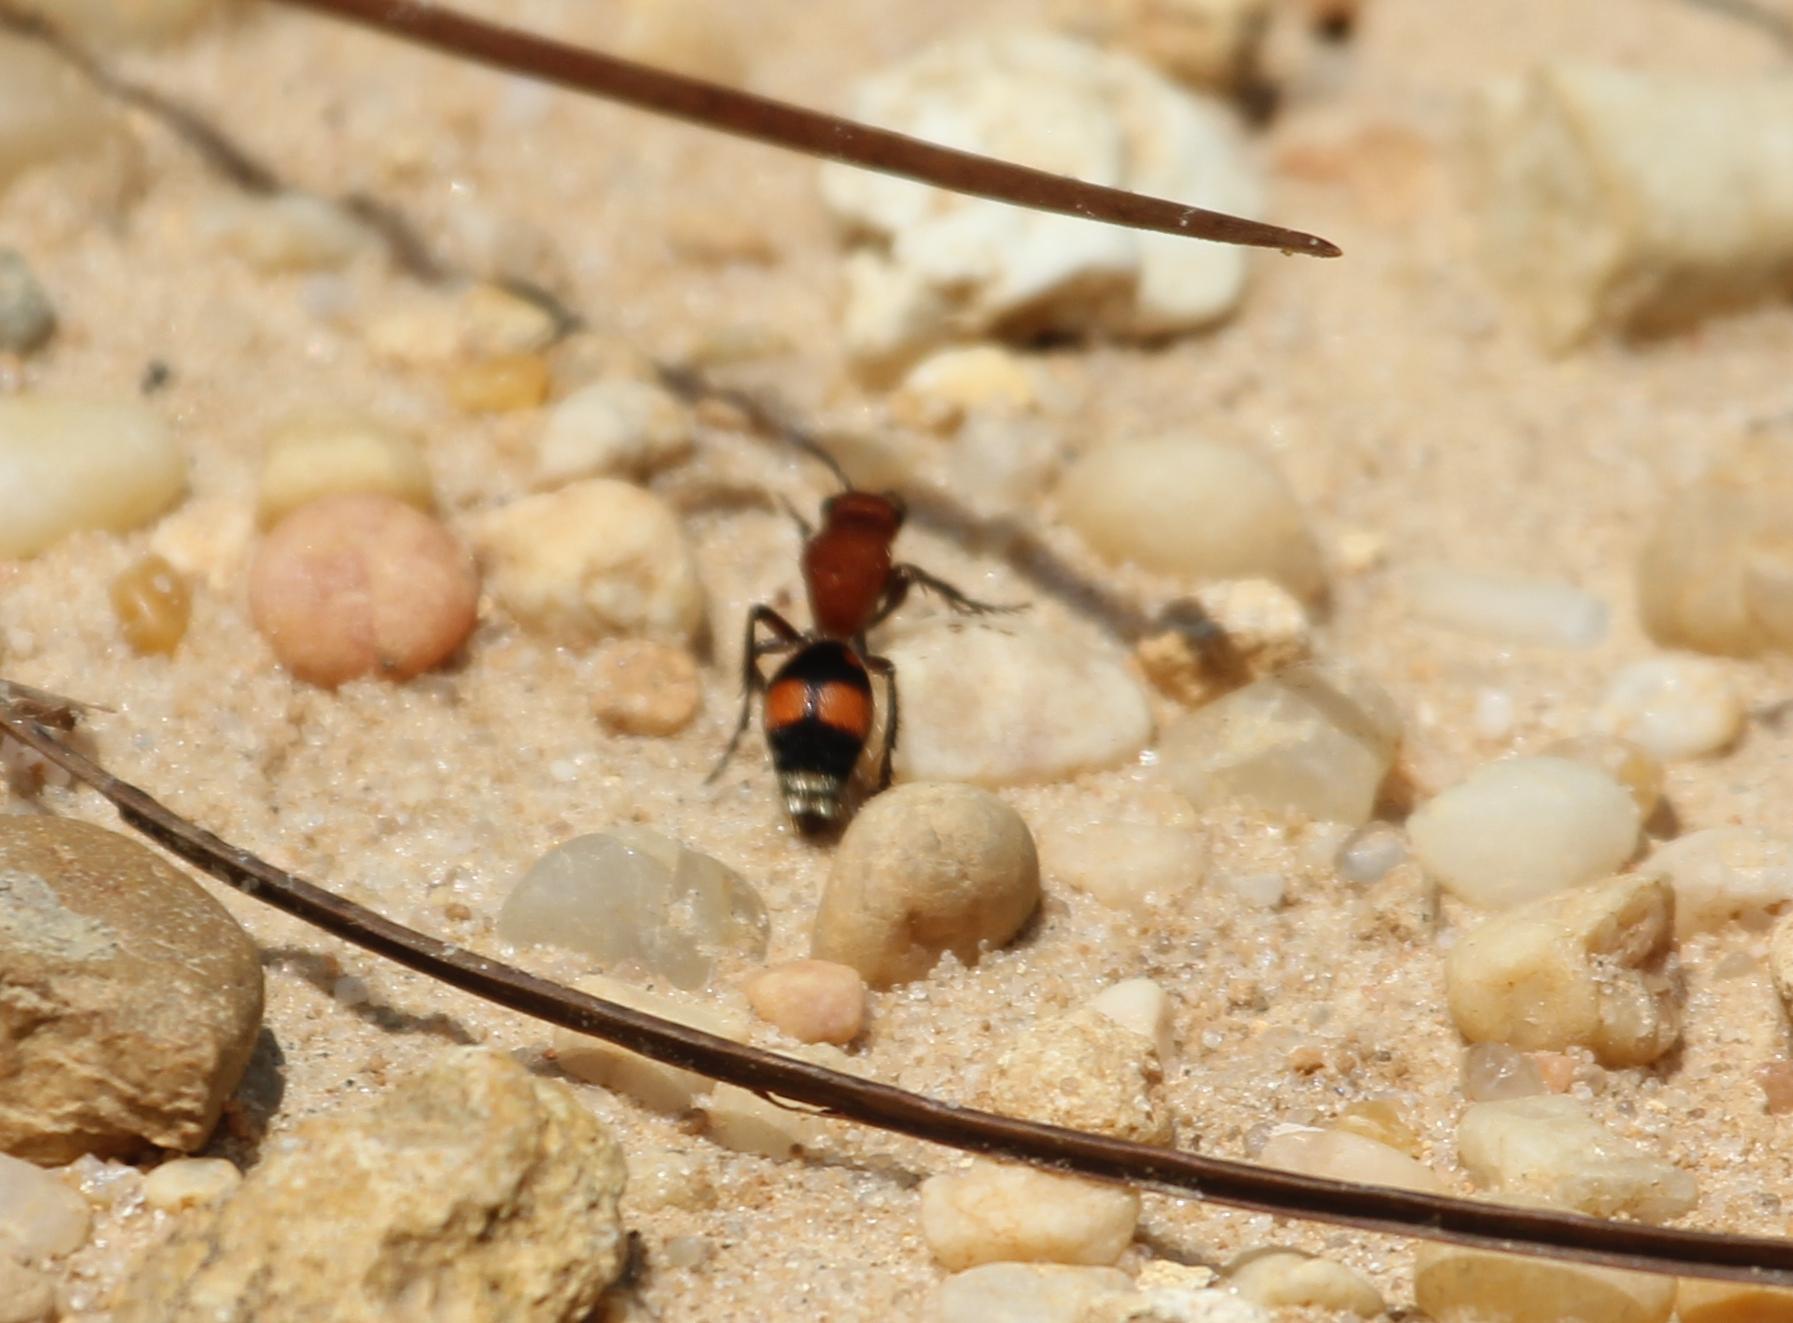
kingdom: Animalia
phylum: Arthropoda
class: Insecta
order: Hymenoptera
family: Mutillidae
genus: Dasymutilla
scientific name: Dasymutilla
